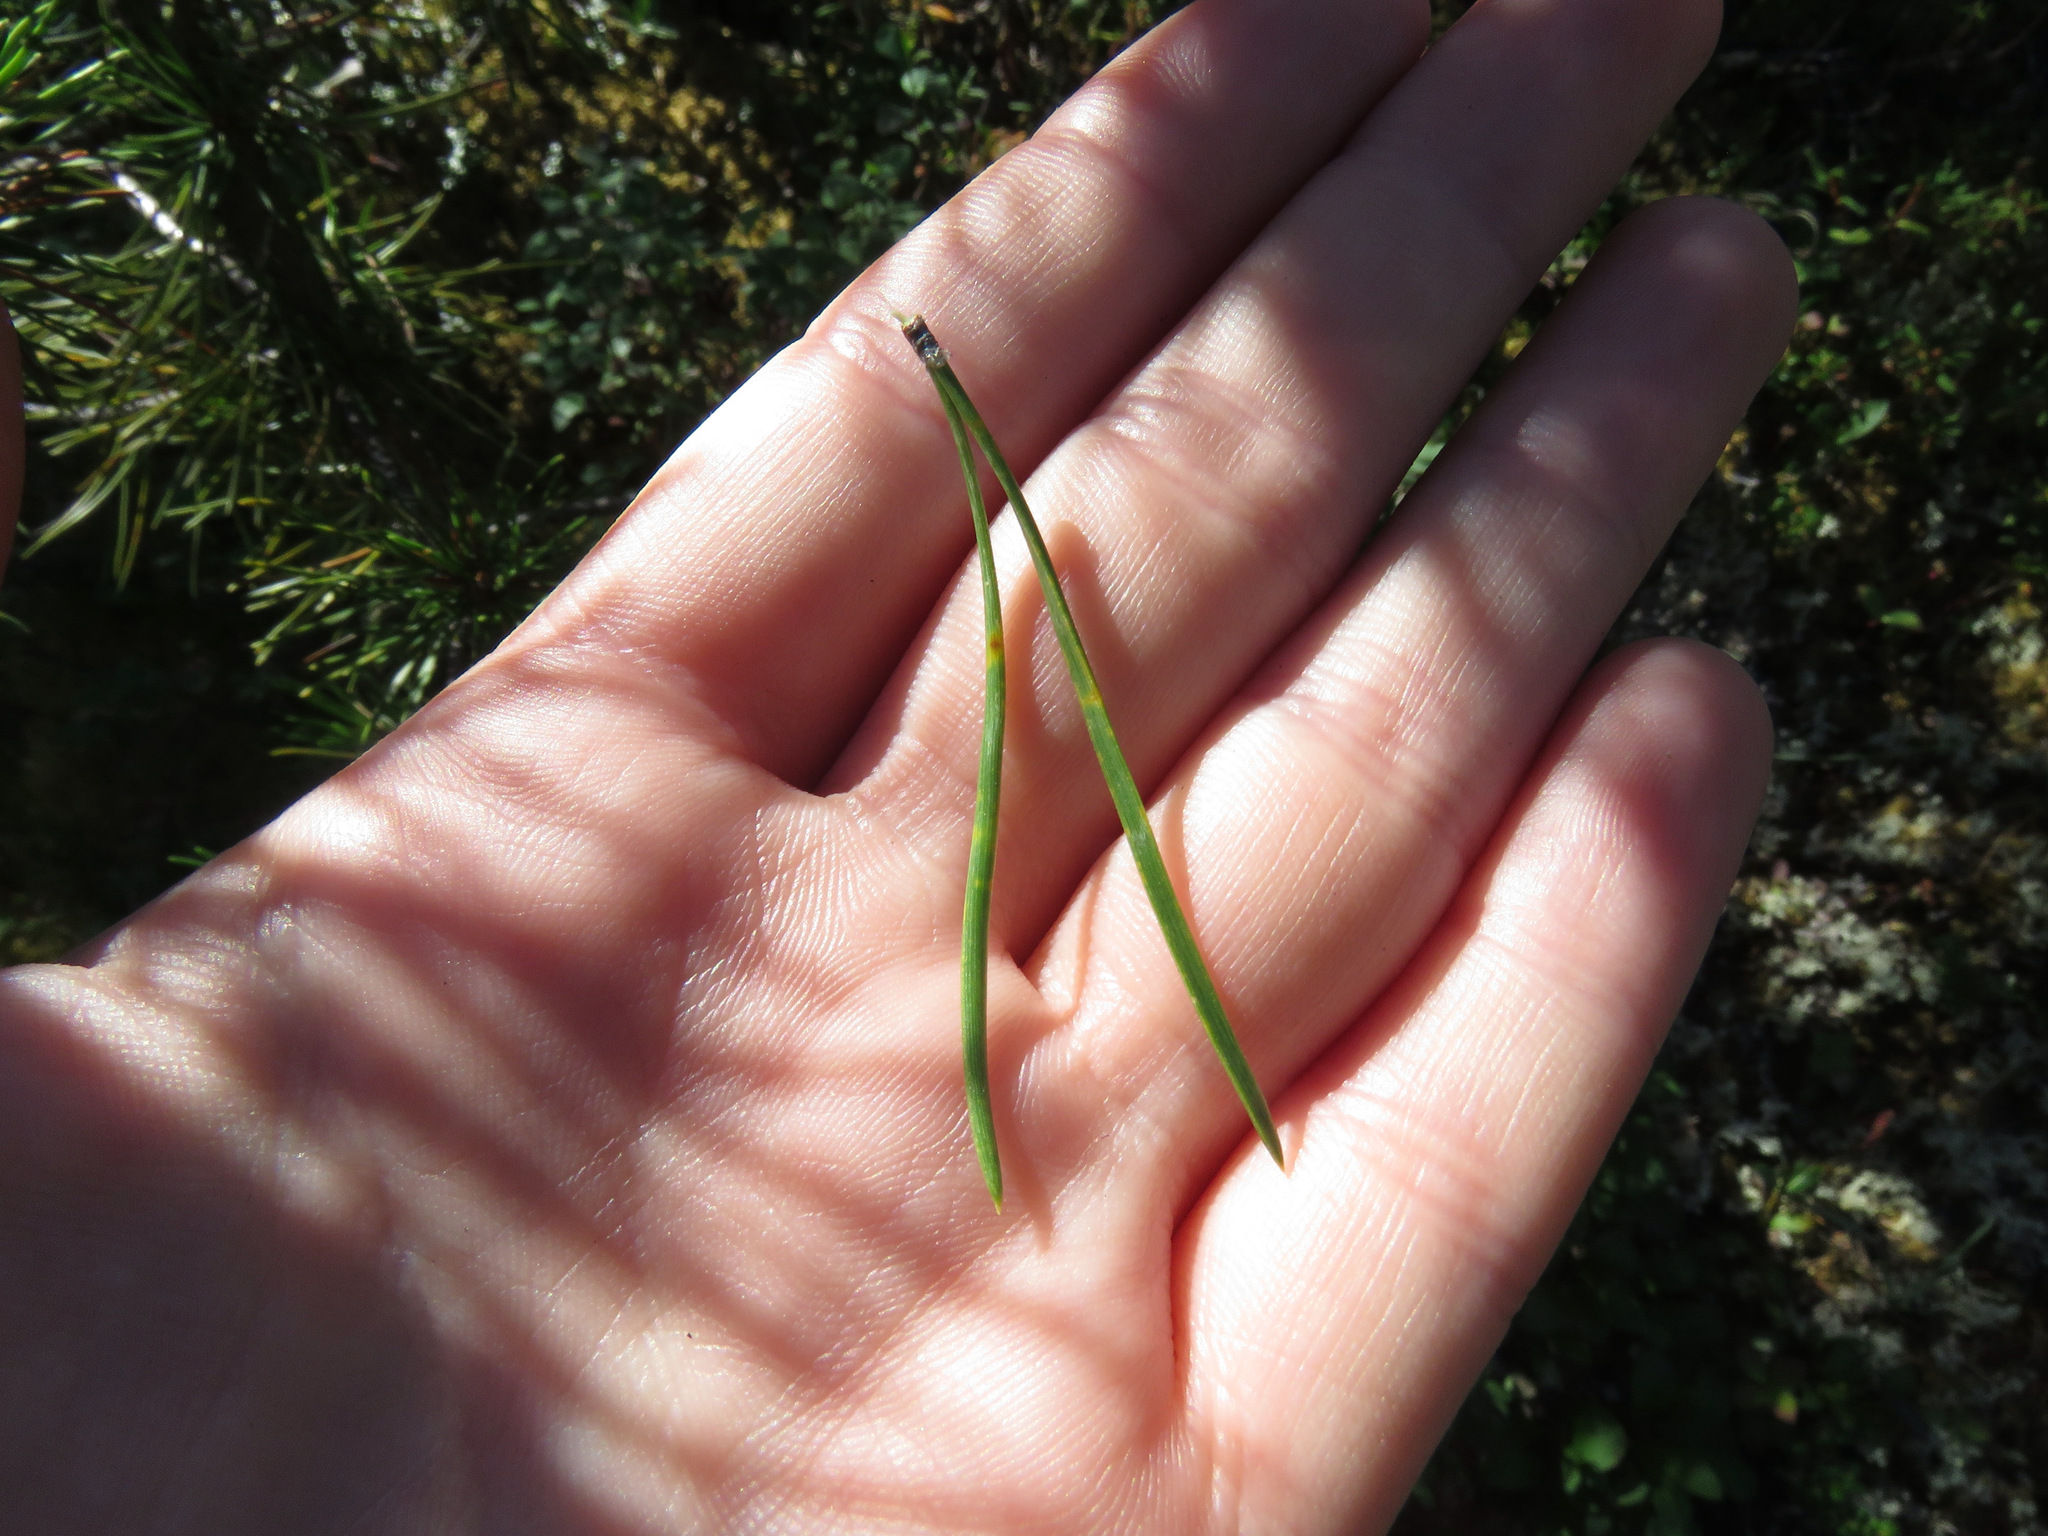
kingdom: Plantae
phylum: Tracheophyta
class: Pinopsida
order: Pinales
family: Pinaceae
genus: Pinus
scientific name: Pinus contorta
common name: Lodgepole pine
